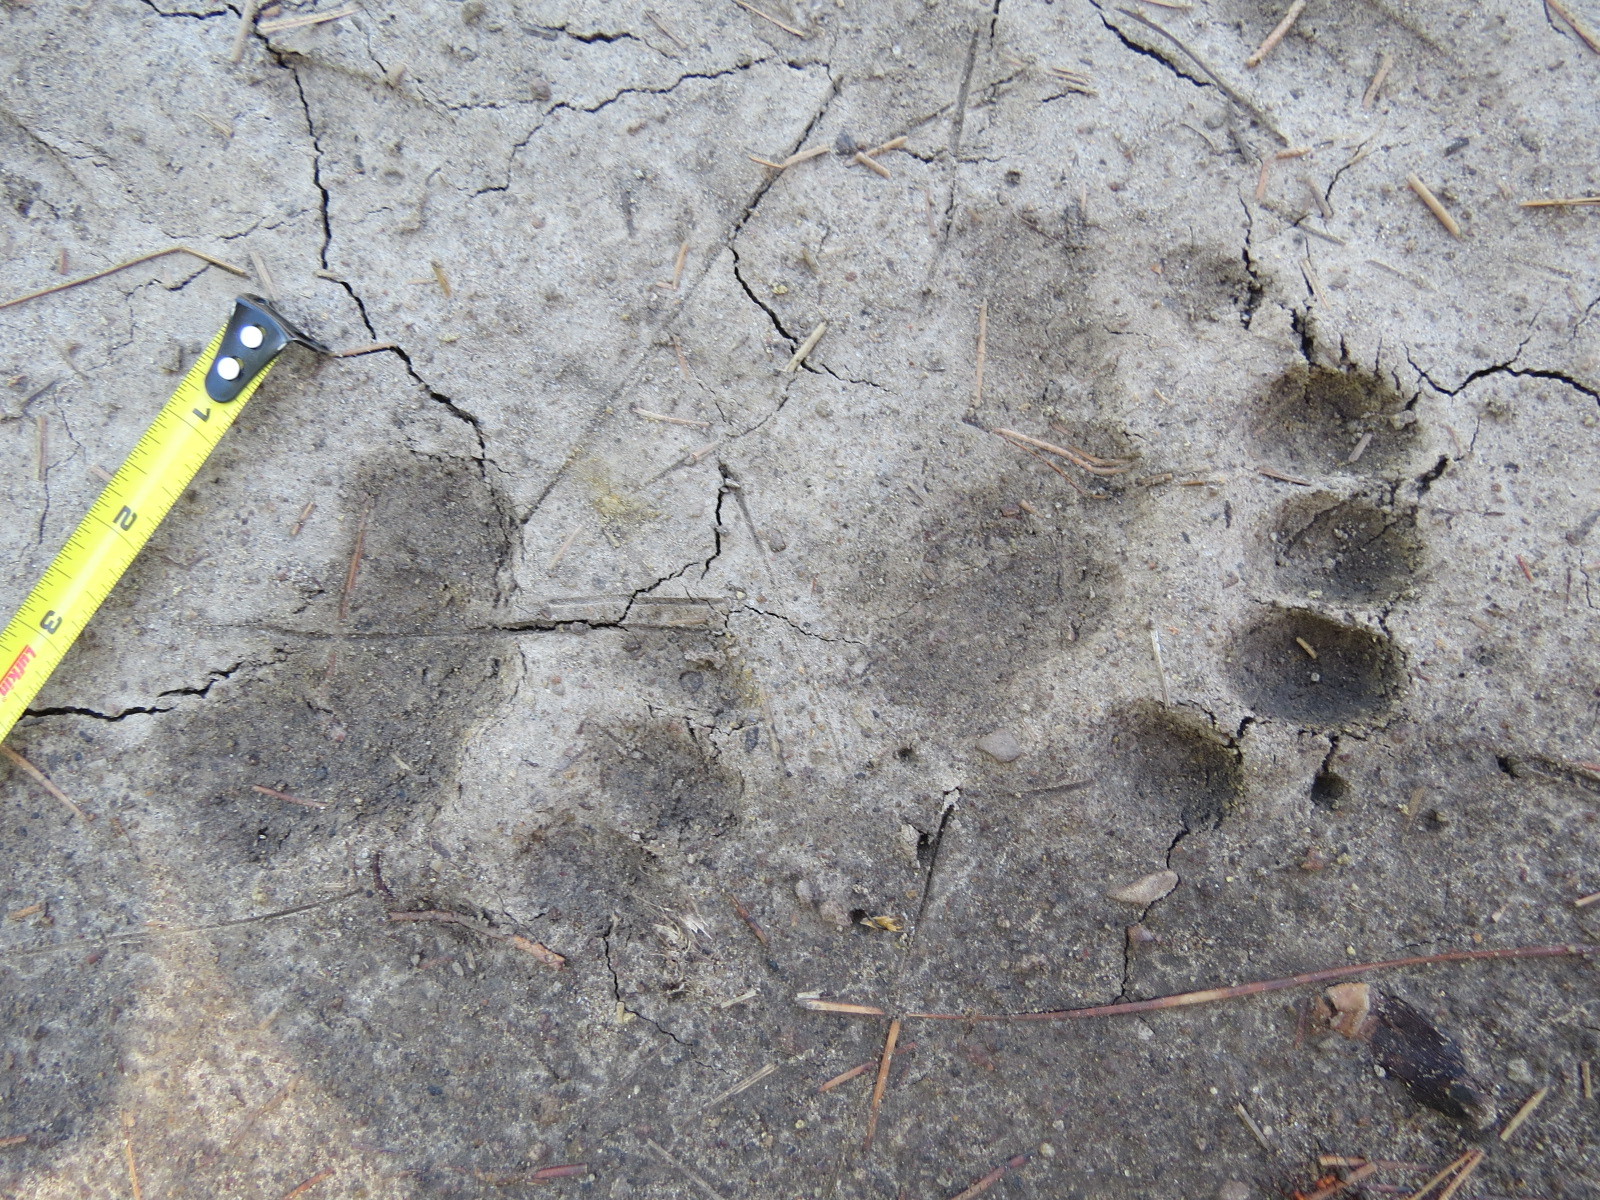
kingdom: Animalia
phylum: Chordata
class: Mammalia
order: Carnivora
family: Ursidae
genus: Ursus
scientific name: Ursus americanus
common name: American black bear
